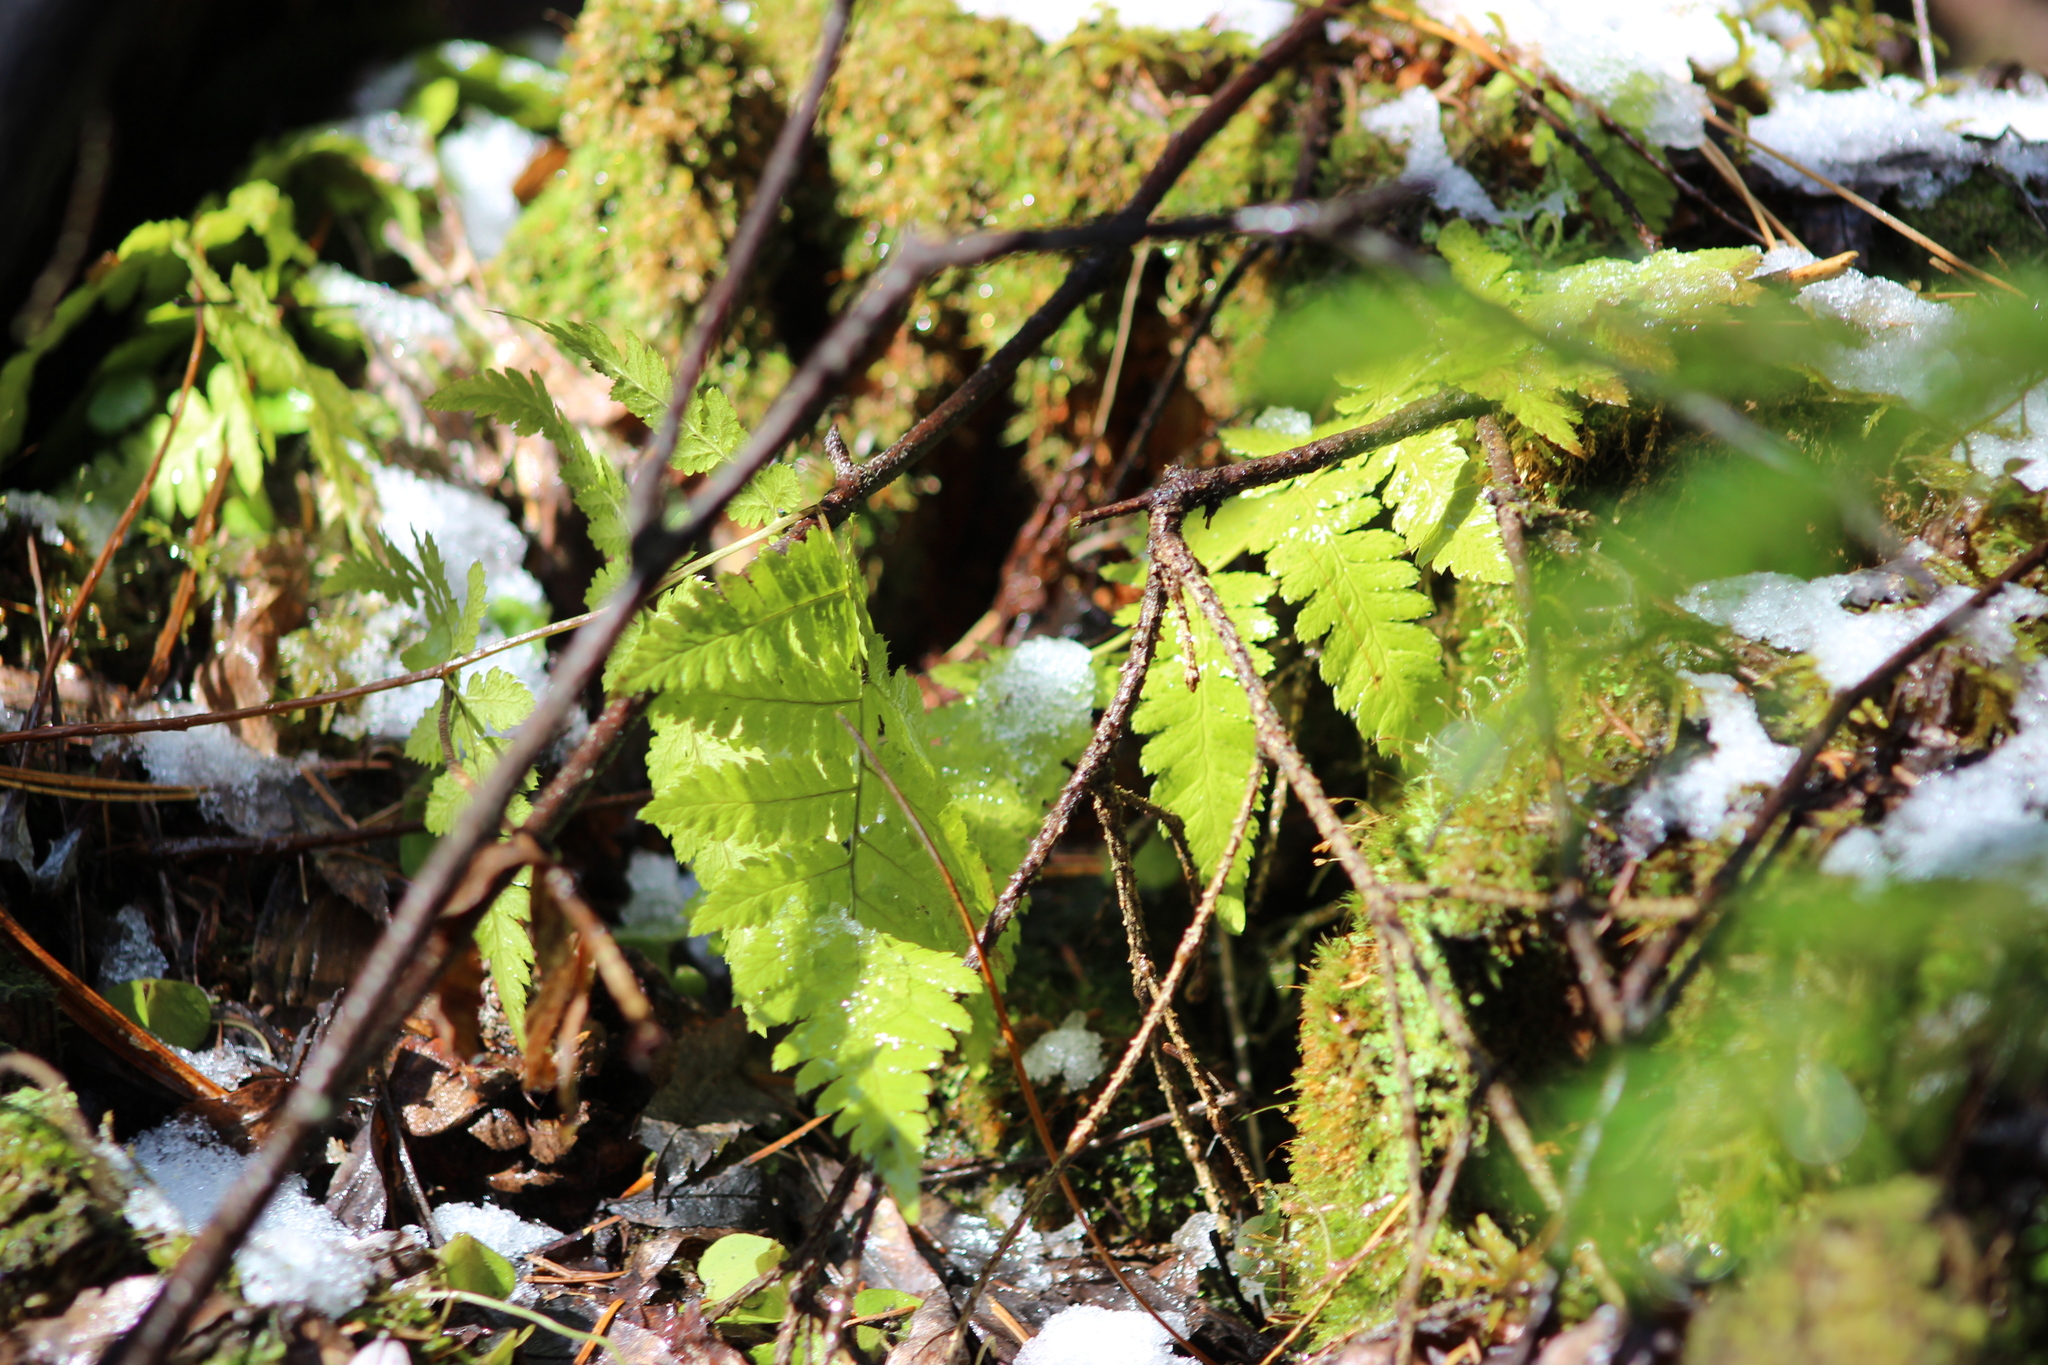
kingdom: Plantae
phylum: Tracheophyta
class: Polypodiopsida
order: Polypodiales
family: Dryopteridaceae
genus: Dryopteris
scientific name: Dryopteris carthusiana
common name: Narrow buckler-fern
